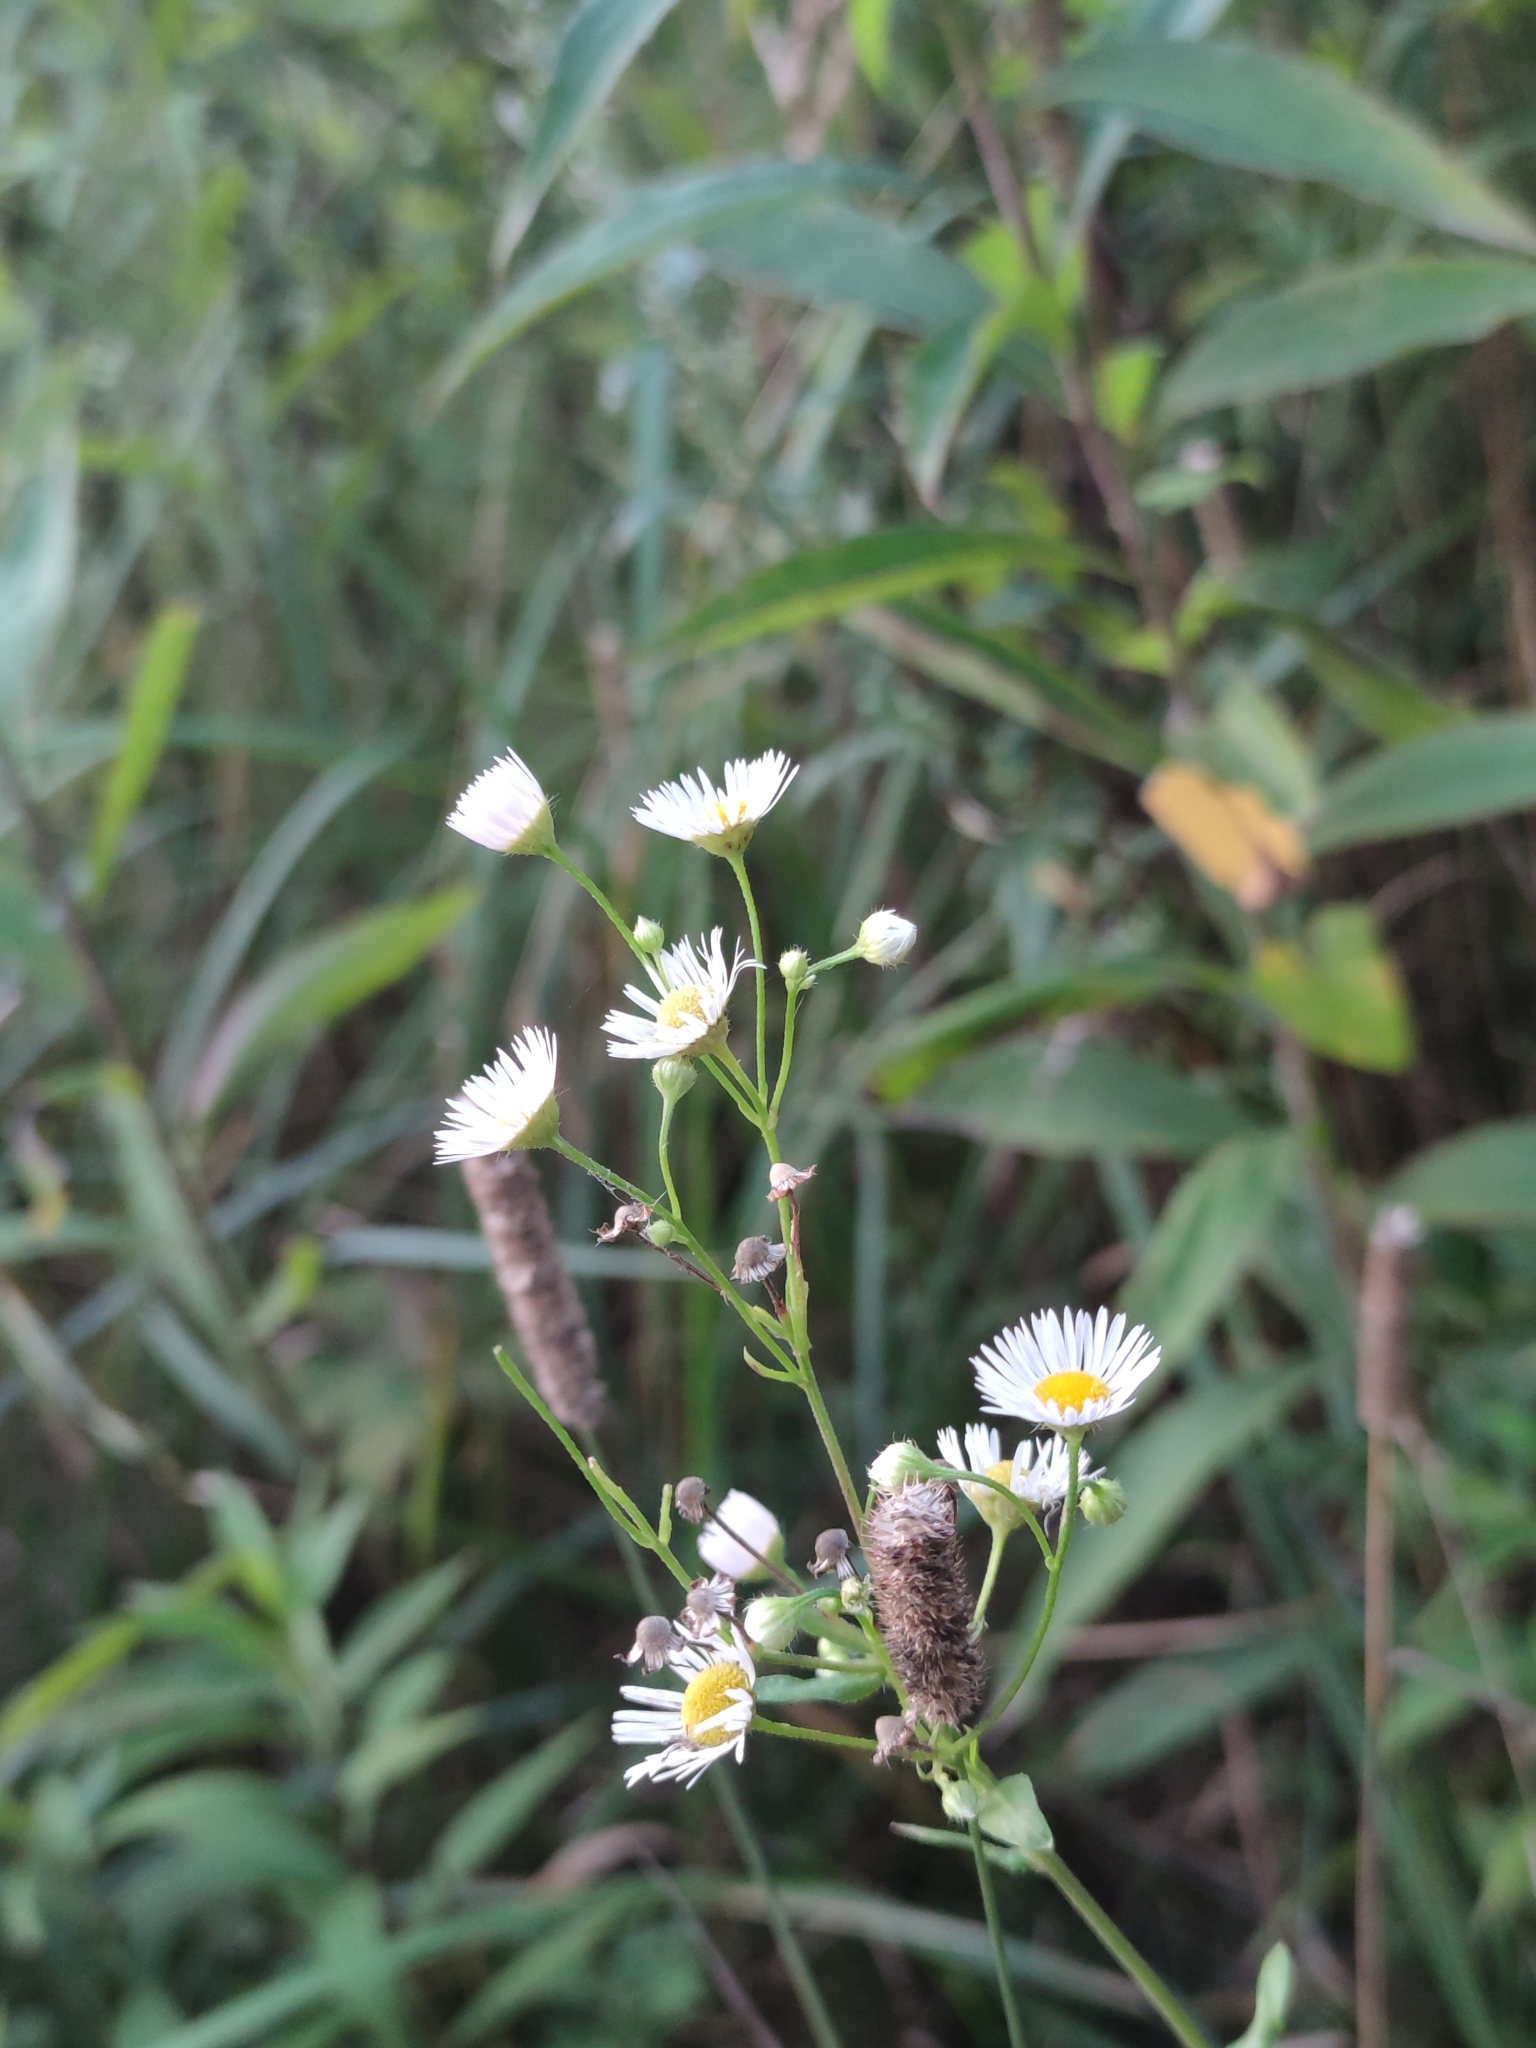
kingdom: Plantae
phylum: Tracheophyta
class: Magnoliopsida
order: Asterales
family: Asteraceae
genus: Erigeron
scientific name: Erigeron annuus
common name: Tall fleabane
